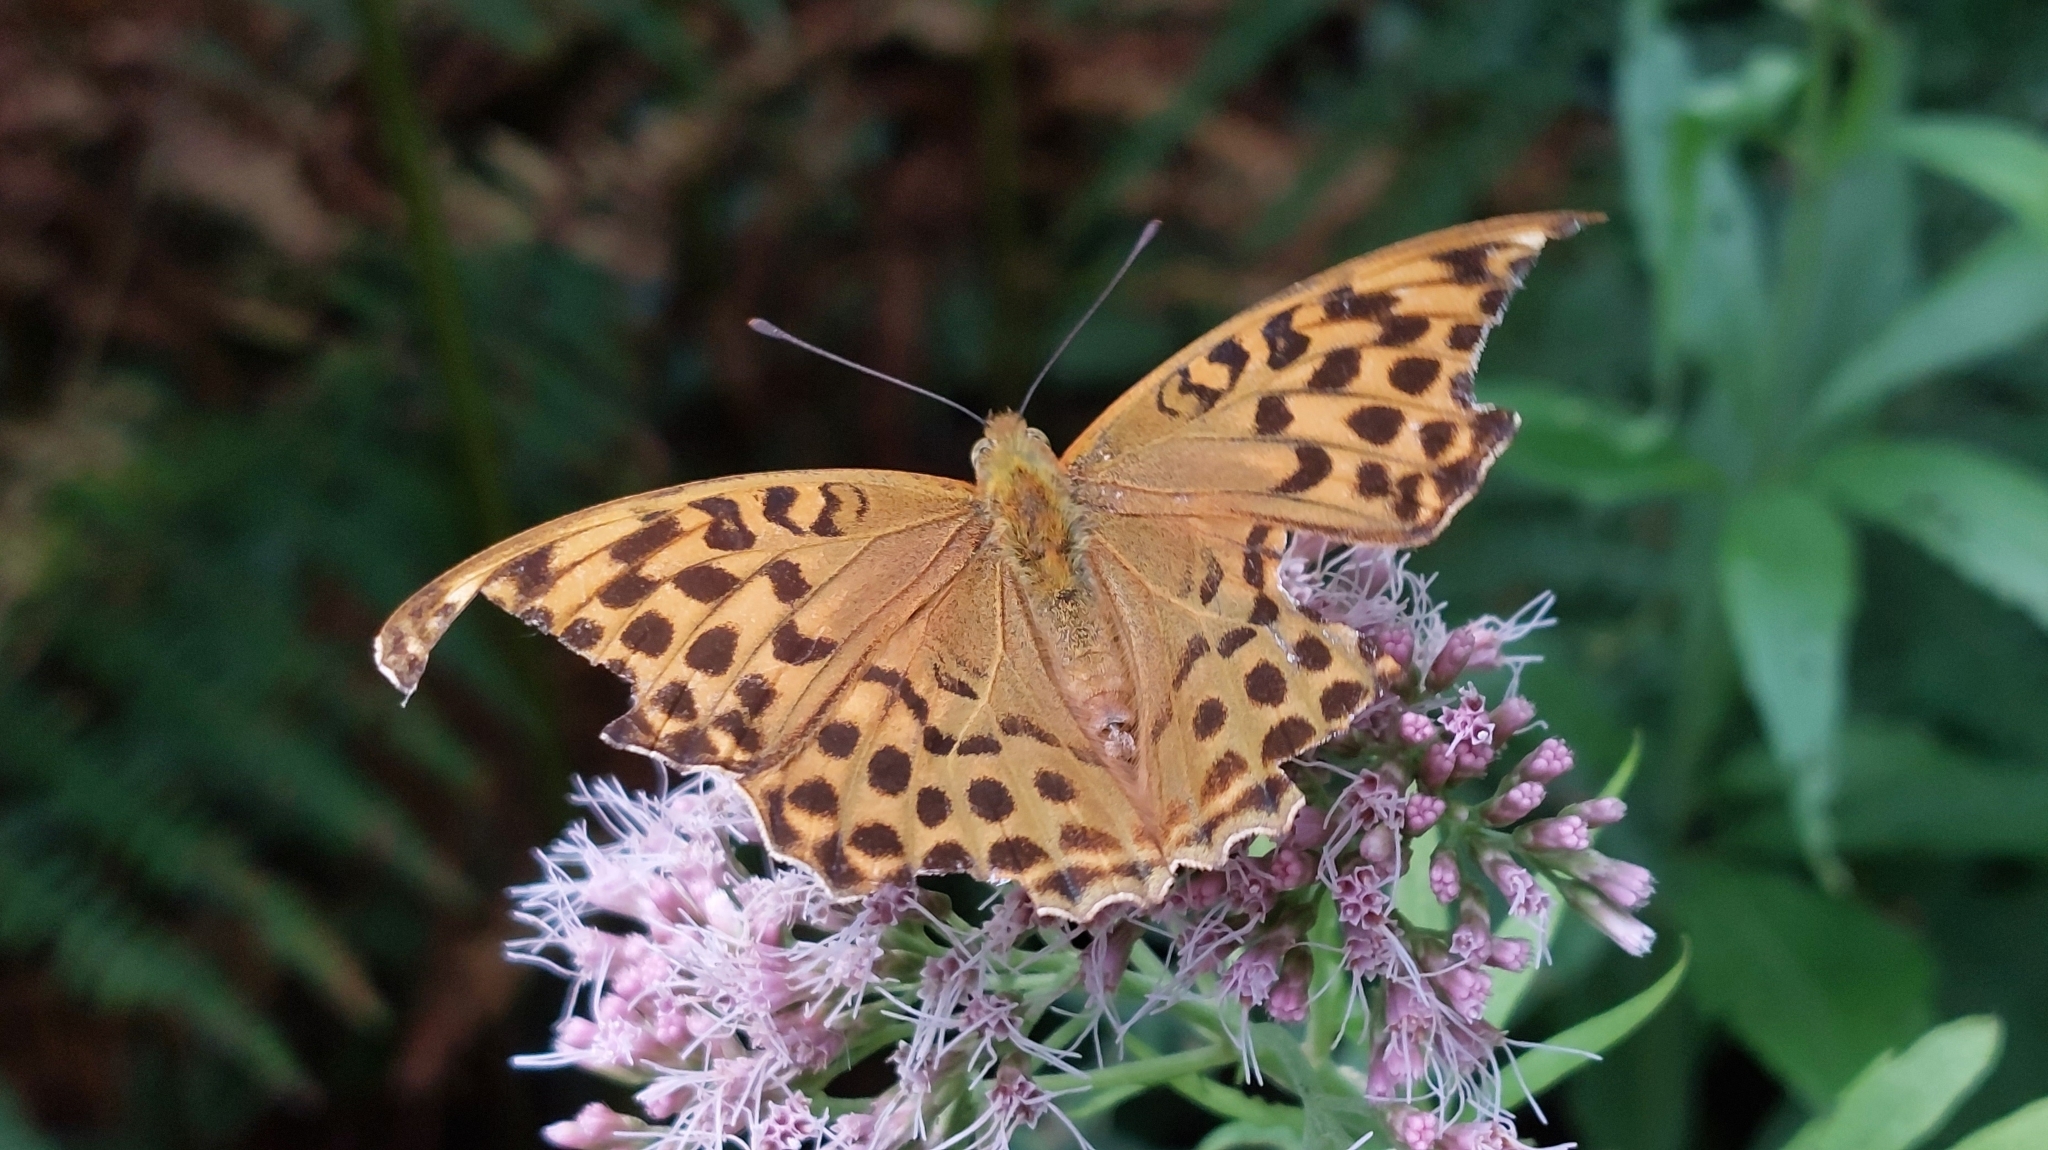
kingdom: Animalia
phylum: Arthropoda
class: Insecta
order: Lepidoptera
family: Nymphalidae
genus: Argynnis
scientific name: Argynnis paphia
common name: Silver-washed fritillary
